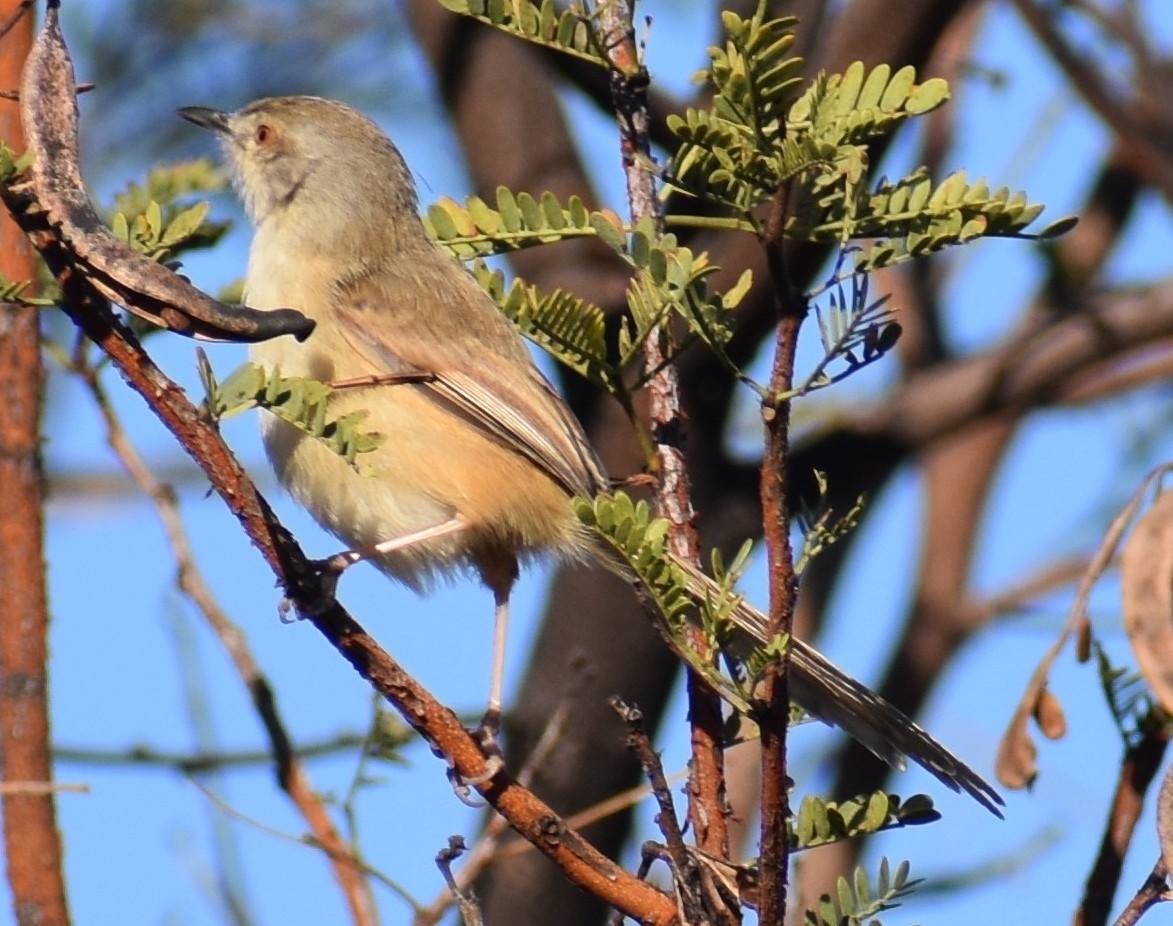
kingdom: Animalia
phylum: Chordata
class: Aves
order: Passeriformes
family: Cisticolidae
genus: Prinia
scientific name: Prinia subflava
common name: Tawny-flanked prinia
